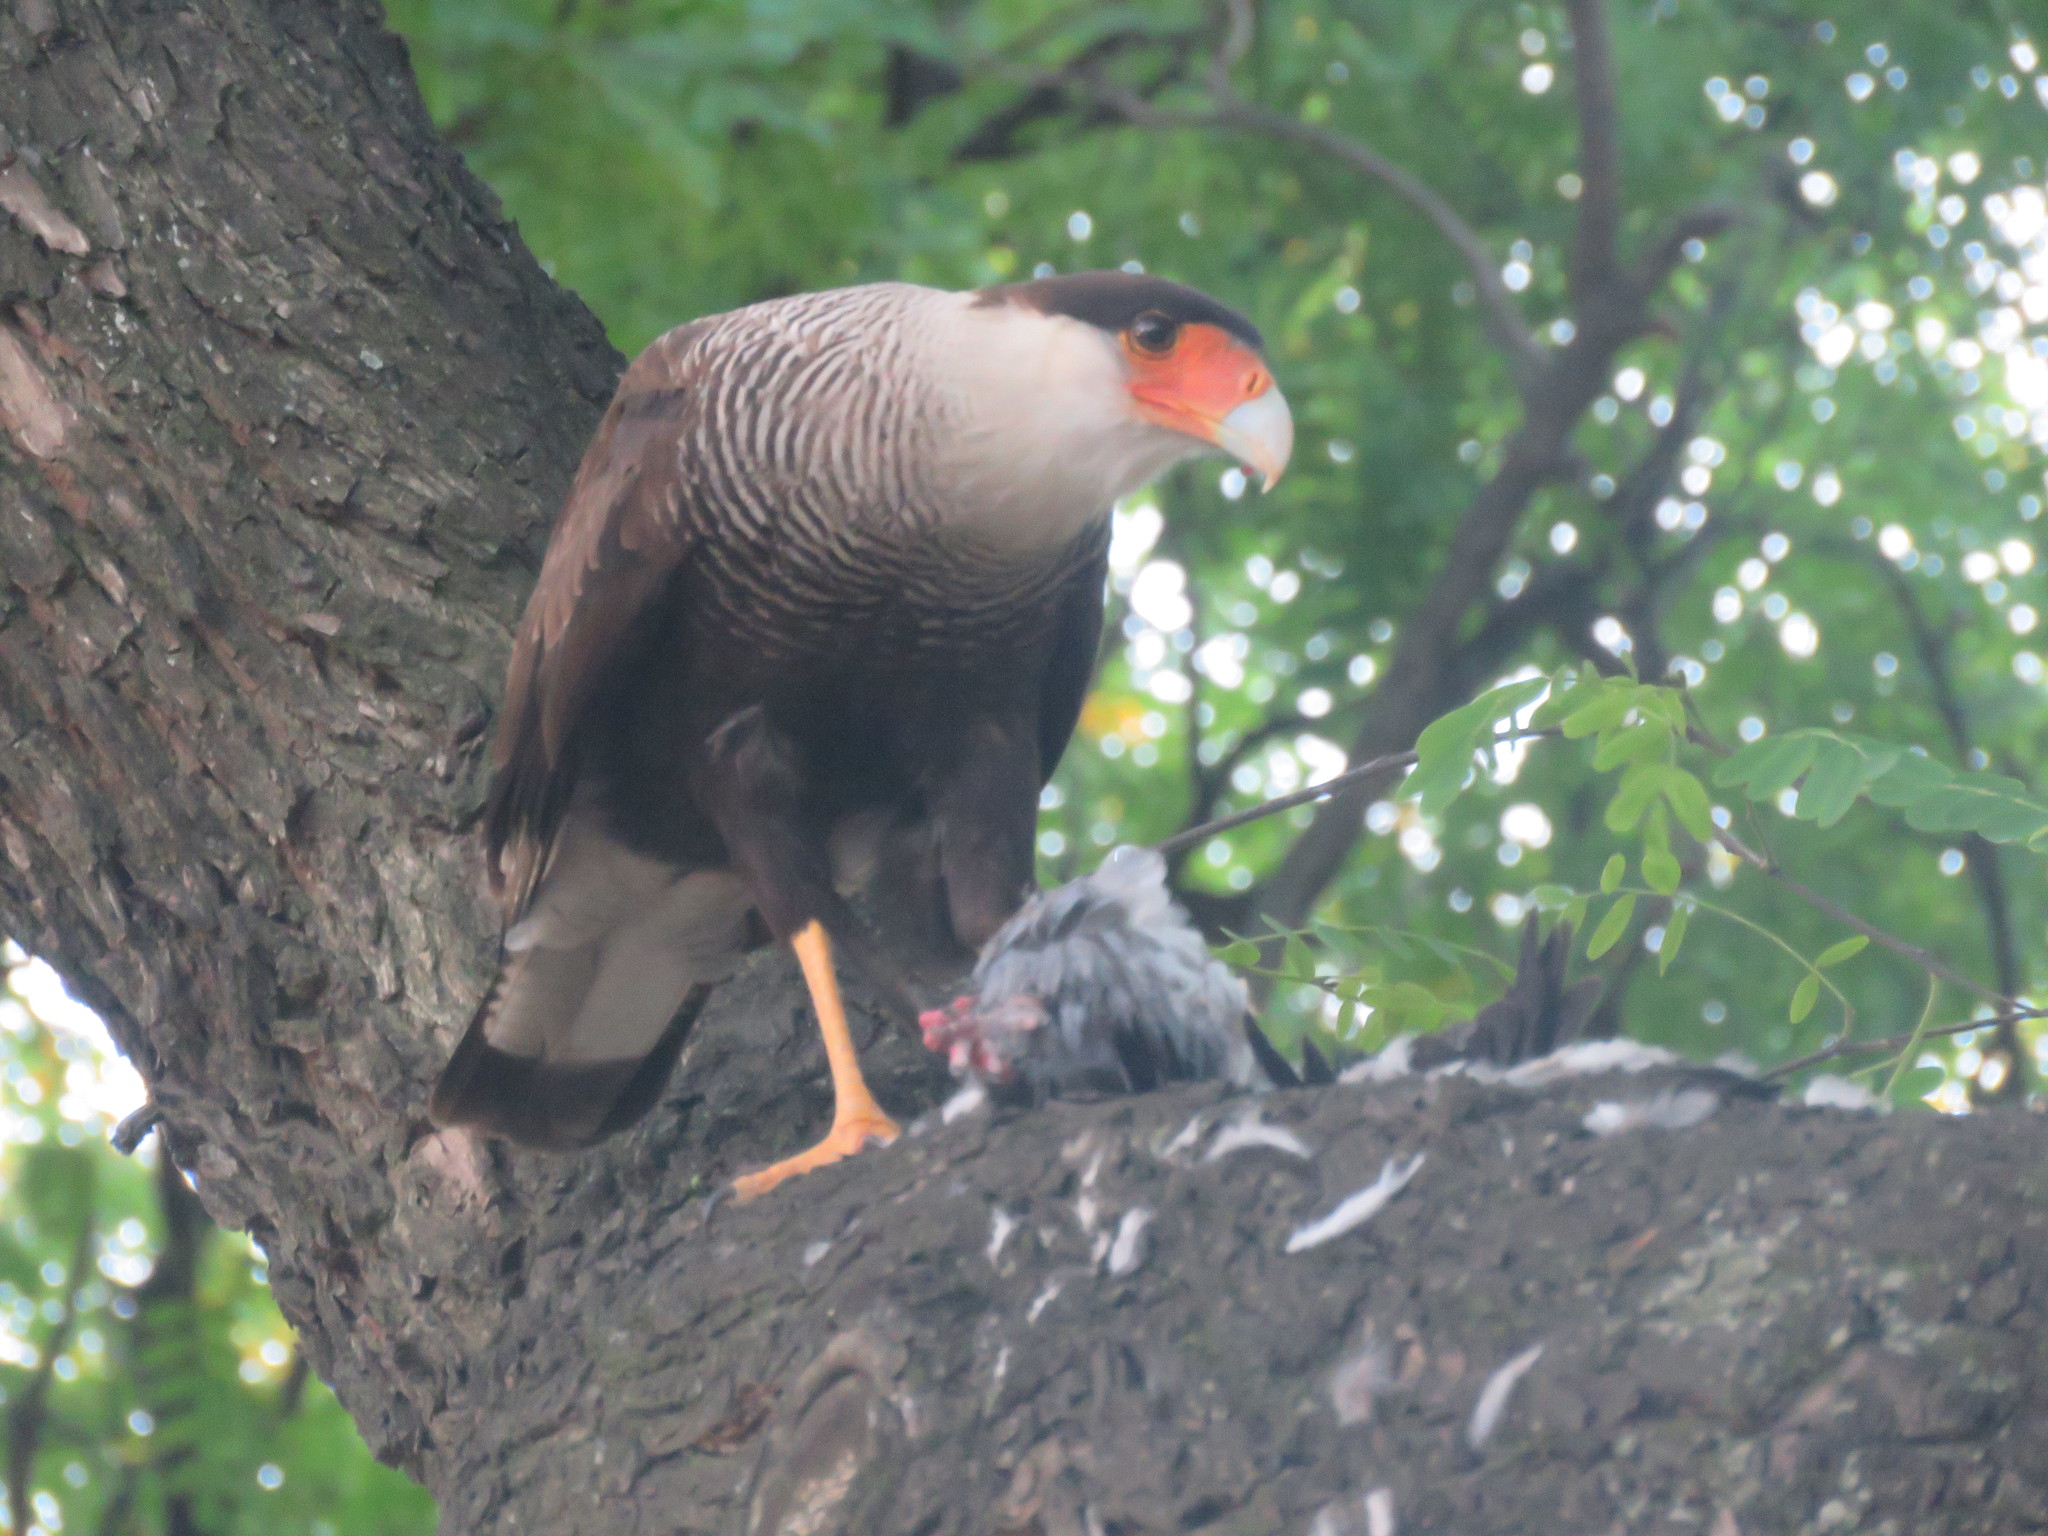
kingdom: Animalia
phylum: Chordata
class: Aves
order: Falconiformes
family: Falconidae
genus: Caracara
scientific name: Caracara plancus
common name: Southern caracara
